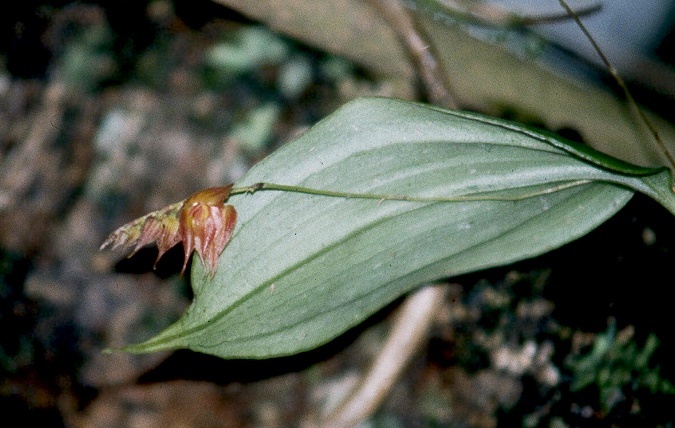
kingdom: Plantae
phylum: Tracheophyta
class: Liliopsida
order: Asparagales
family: Orchidaceae
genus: Lepanthes
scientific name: Lepanthes hirtzii
